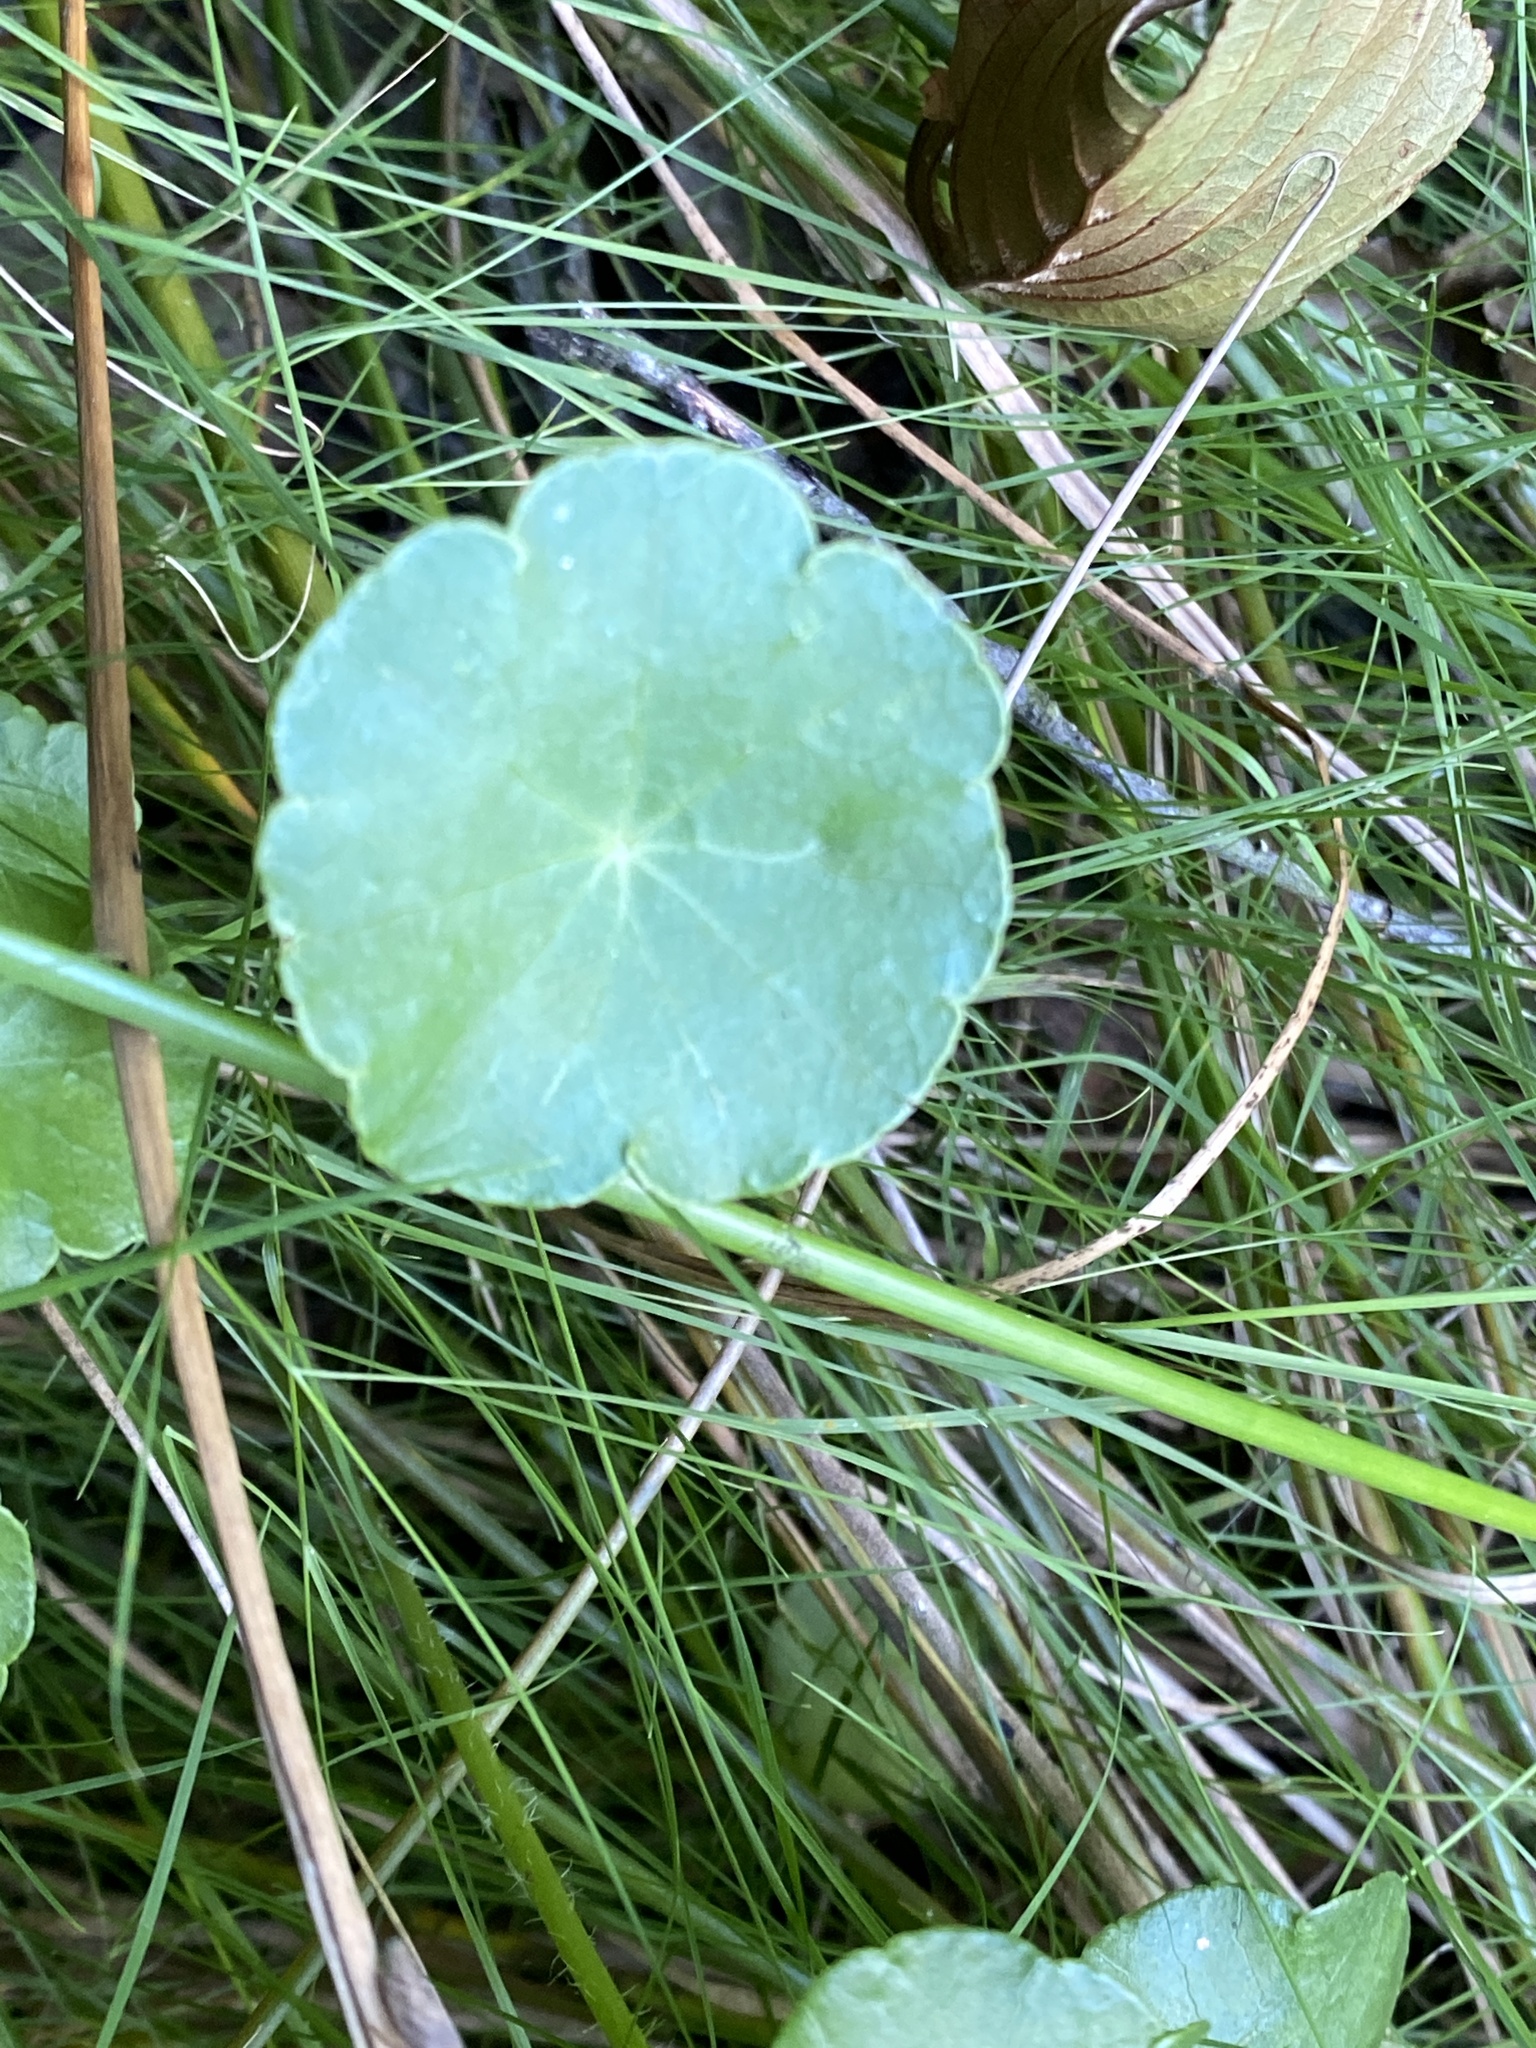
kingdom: Plantae
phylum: Tracheophyta
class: Magnoliopsida
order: Apiales
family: Araliaceae
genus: Hydrocotyle
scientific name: Hydrocotyle vulgaris
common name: Marsh pennywort
